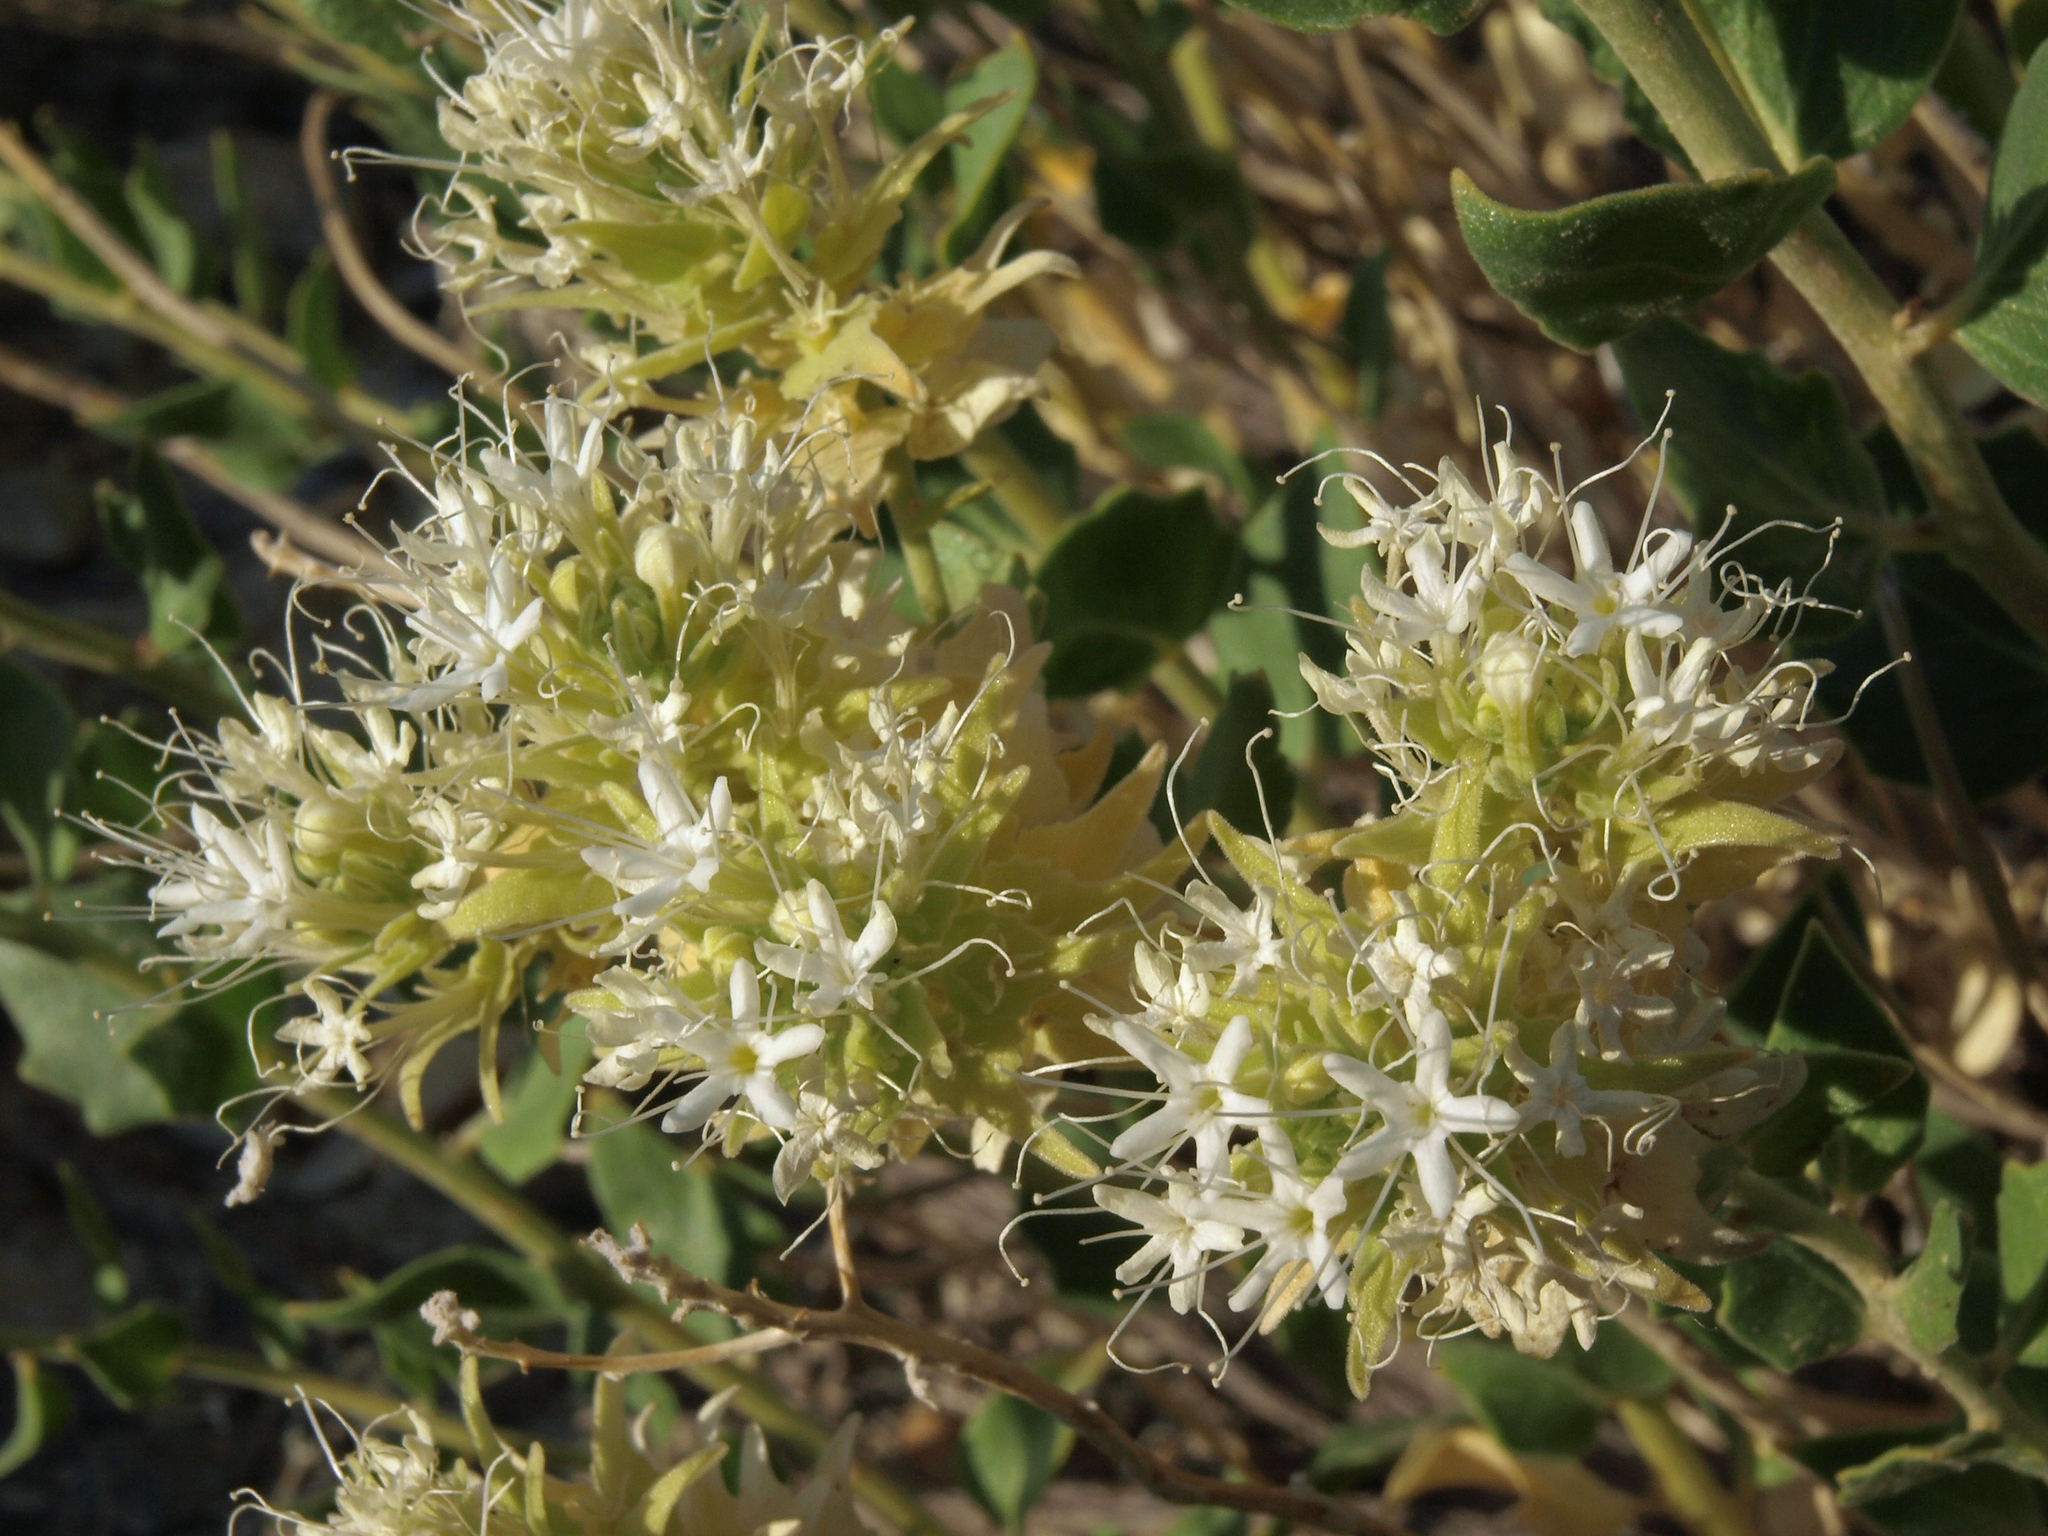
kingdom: Plantae
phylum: Tracheophyta
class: Magnoliopsida
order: Cornales
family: Loasaceae
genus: Petalonyx
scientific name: Petalonyx nitidus
